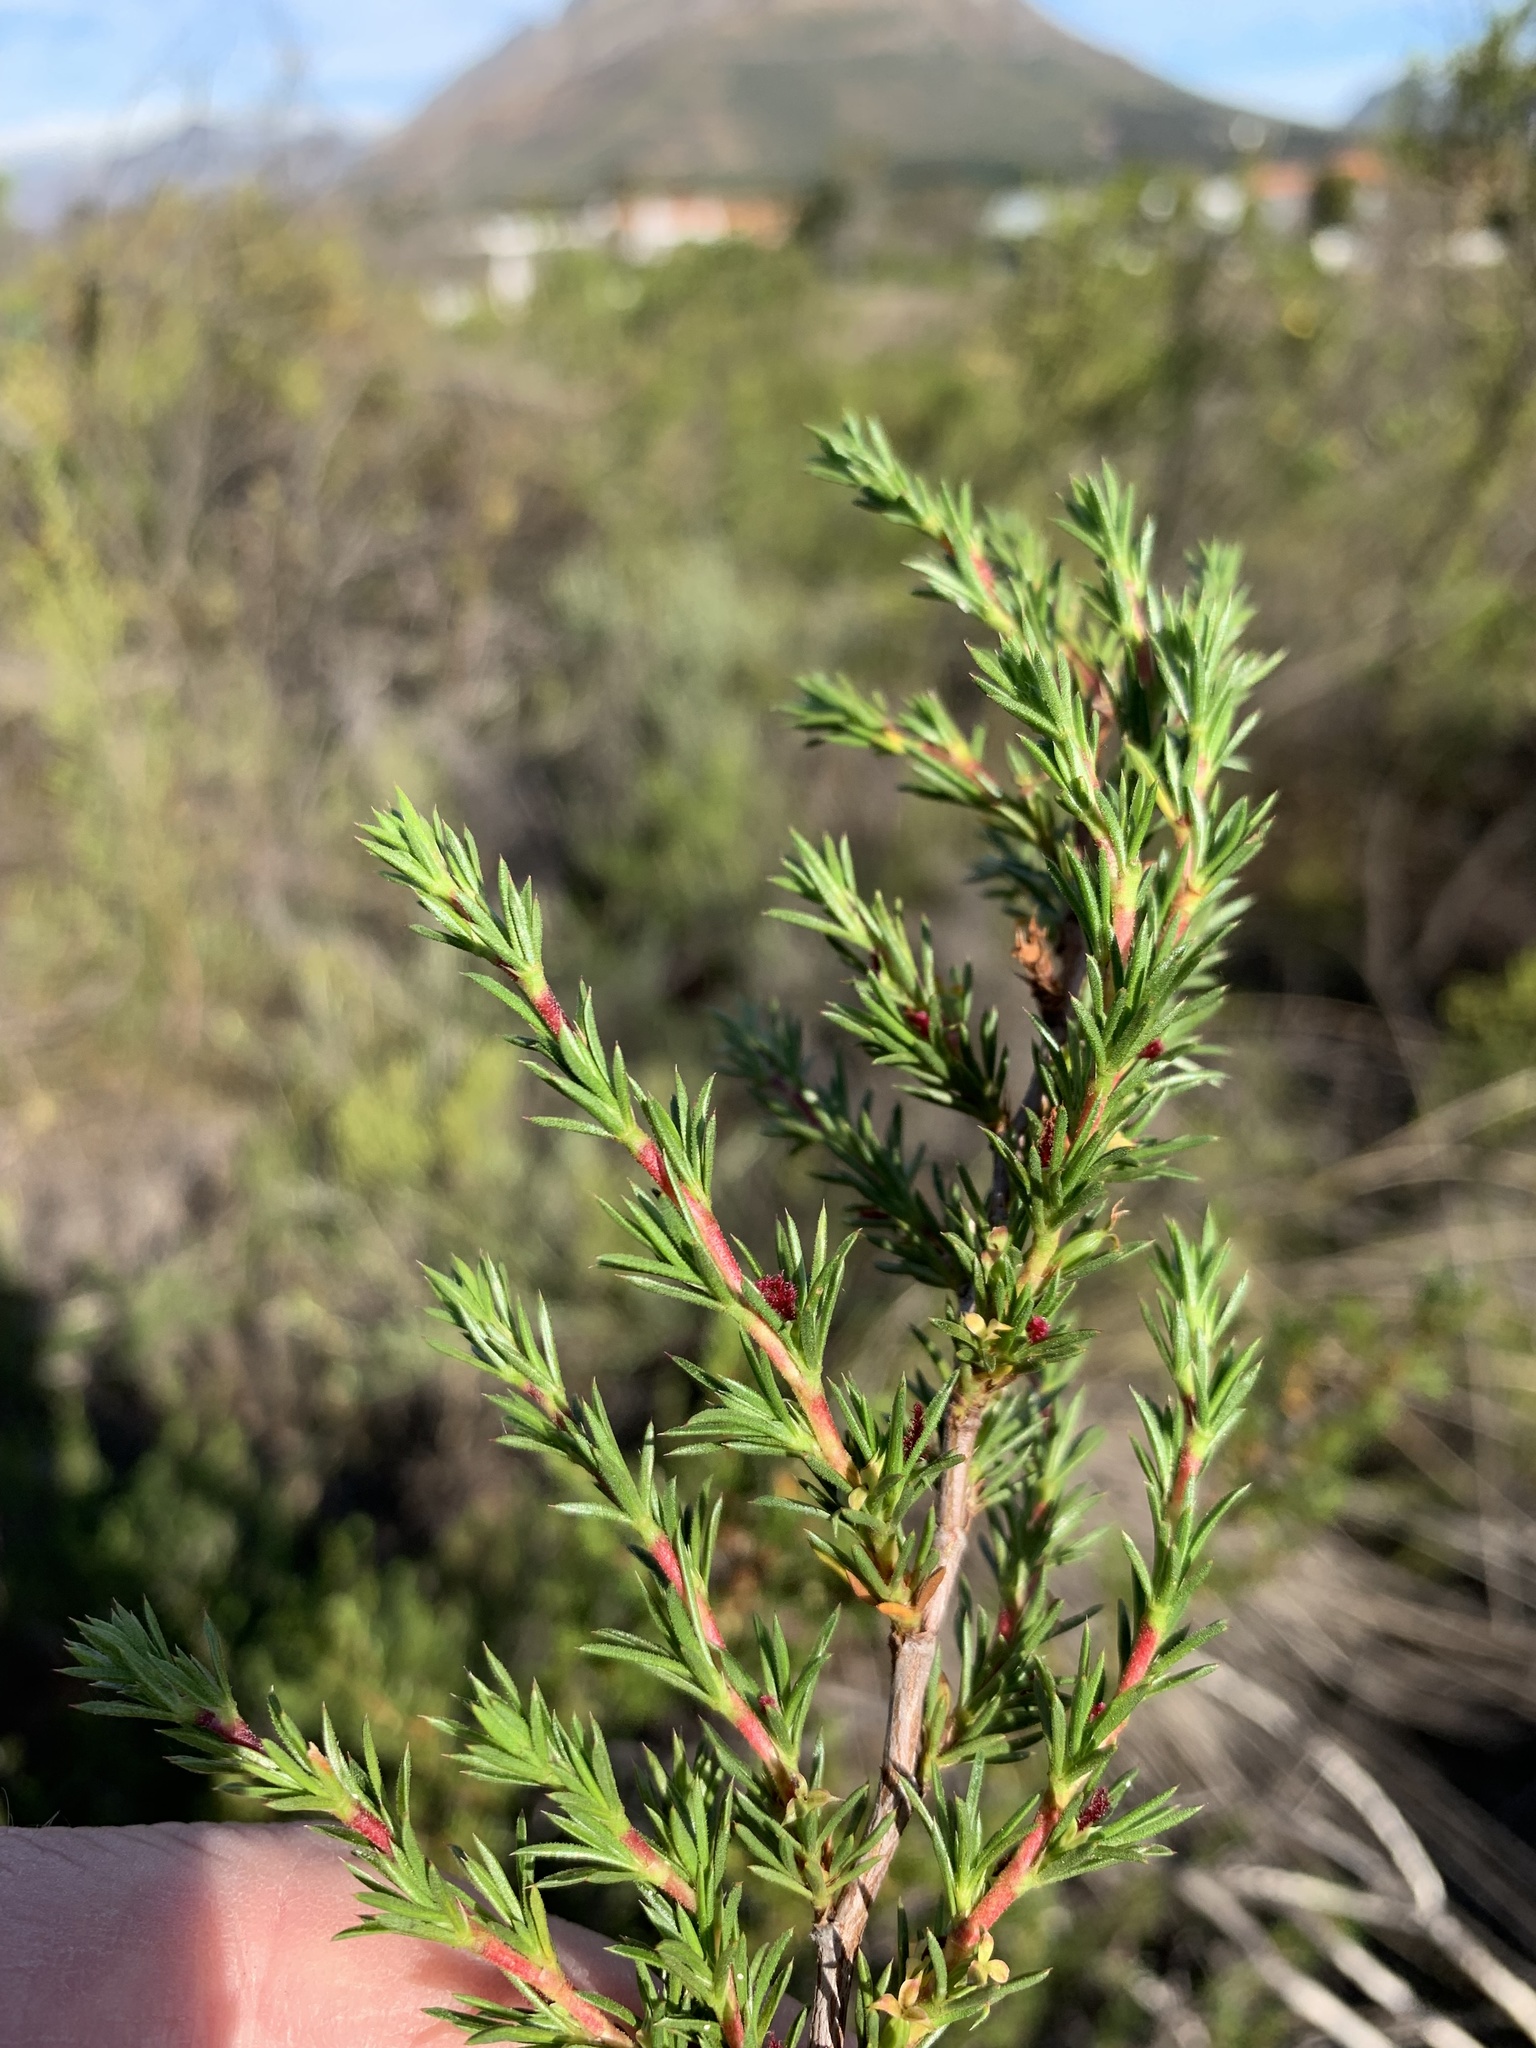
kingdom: Plantae
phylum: Tracheophyta
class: Magnoliopsida
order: Rosales
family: Rosaceae
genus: Cliffortia
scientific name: Cliffortia pterocarpa
